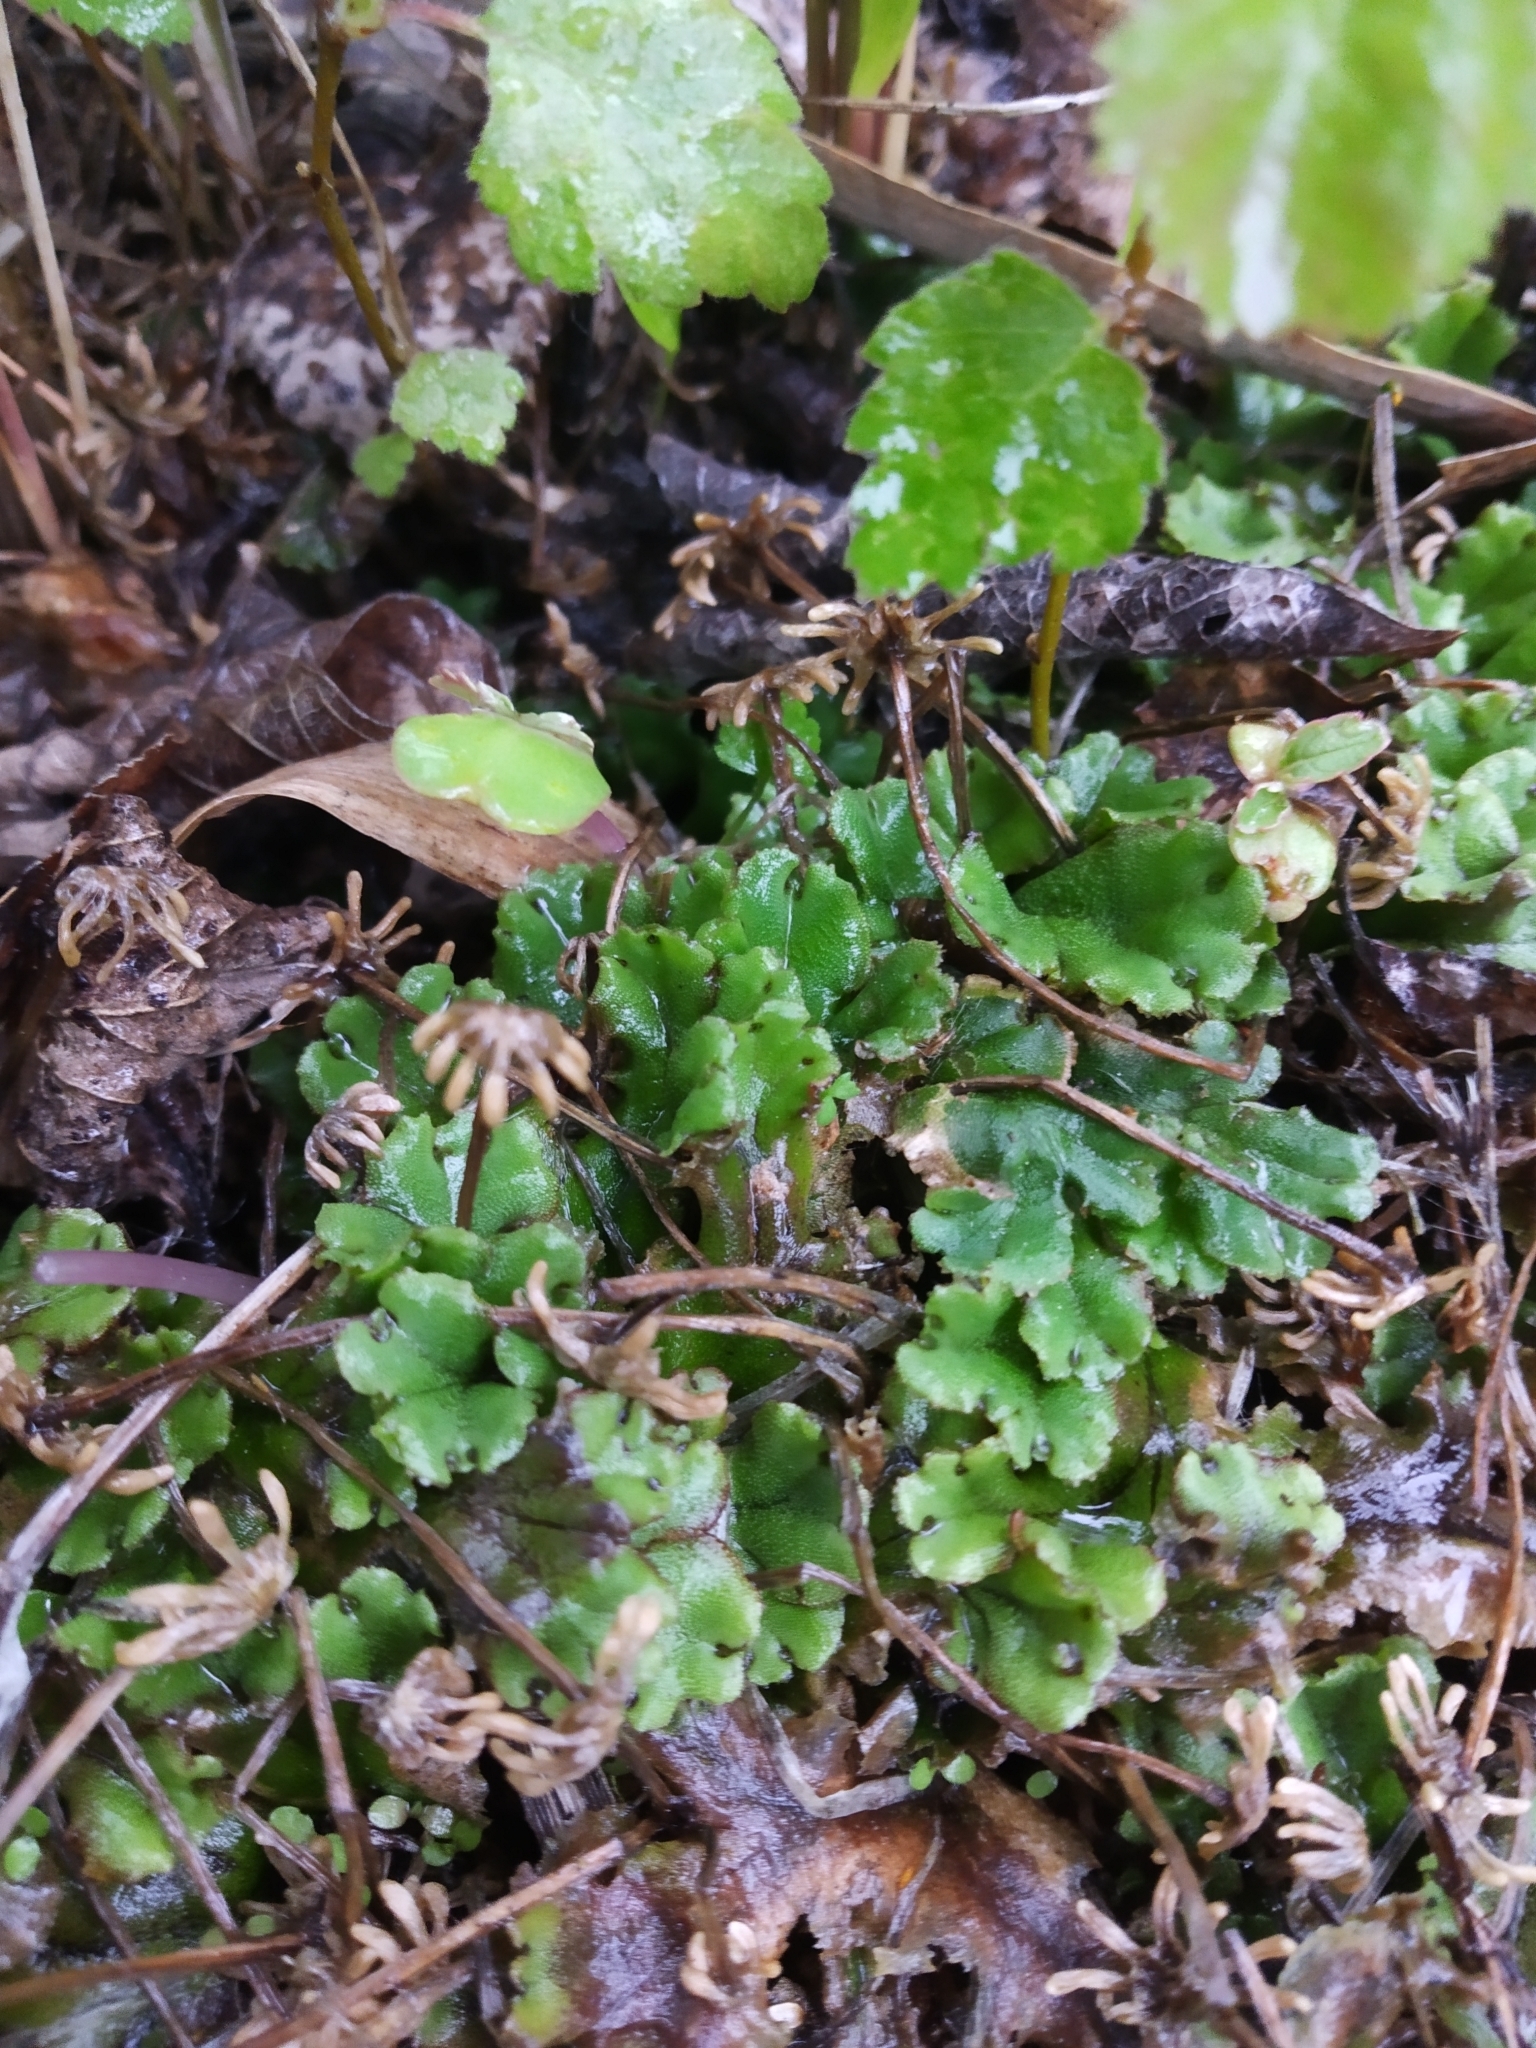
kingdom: Plantae
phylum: Marchantiophyta
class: Marchantiopsida
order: Marchantiales
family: Marchantiaceae
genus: Marchantia
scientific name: Marchantia polymorpha
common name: Common liverwort
